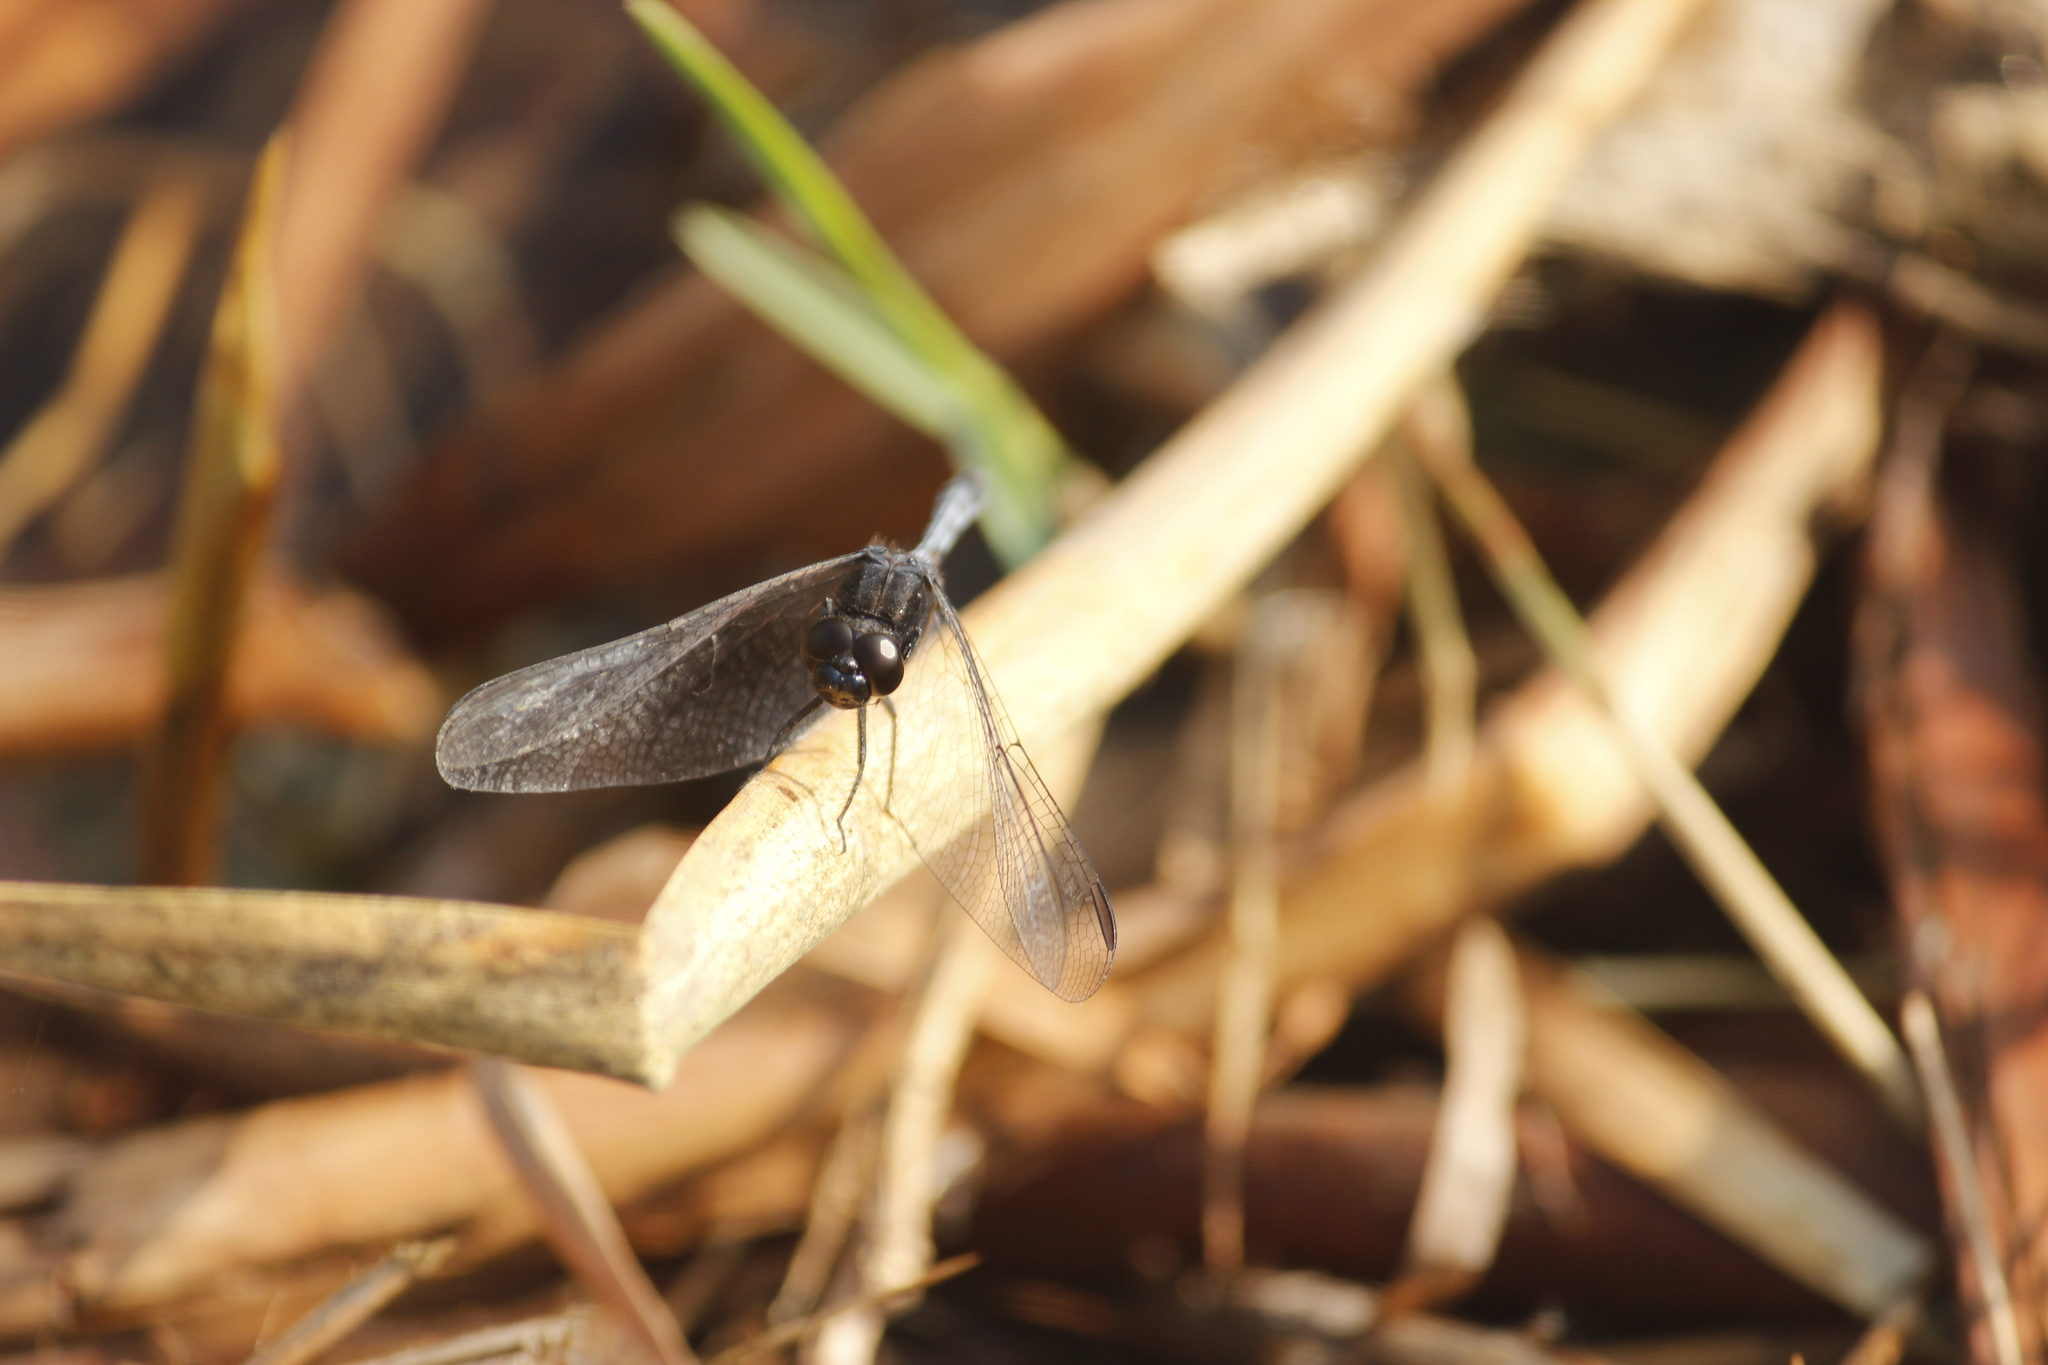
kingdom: Animalia
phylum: Arthropoda
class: Insecta
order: Odonata
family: Libellulidae
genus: Erythrodiplax
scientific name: Erythrodiplax cleopatra
